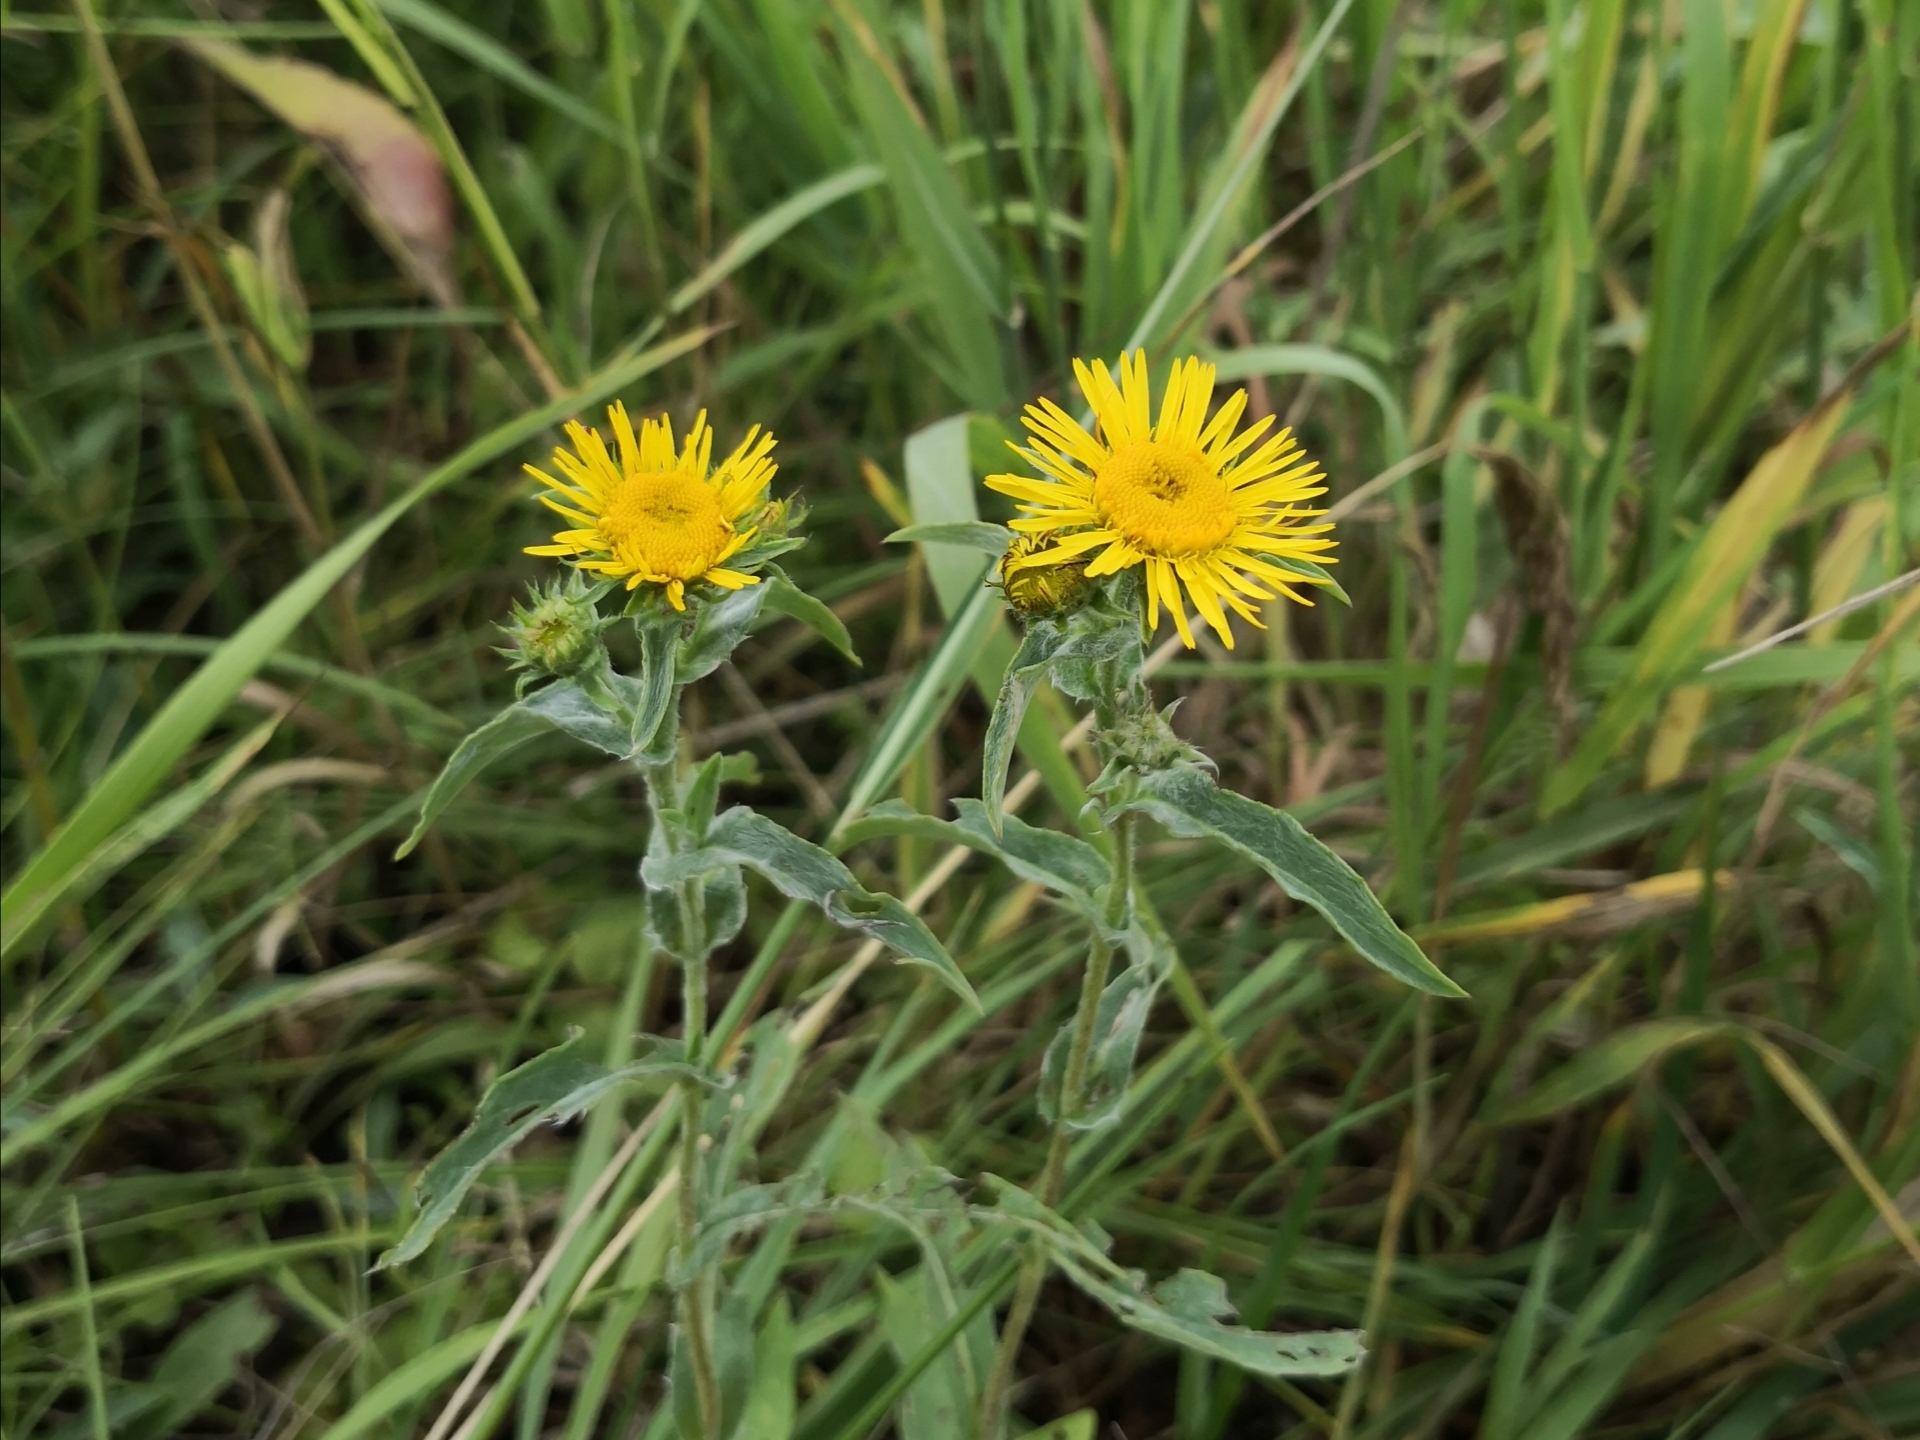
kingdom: Plantae
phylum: Tracheophyta
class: Magnoliopsida
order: Asterales
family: Asteraceae
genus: Pentanema
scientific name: Pentanema britannicum
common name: British elecampane
